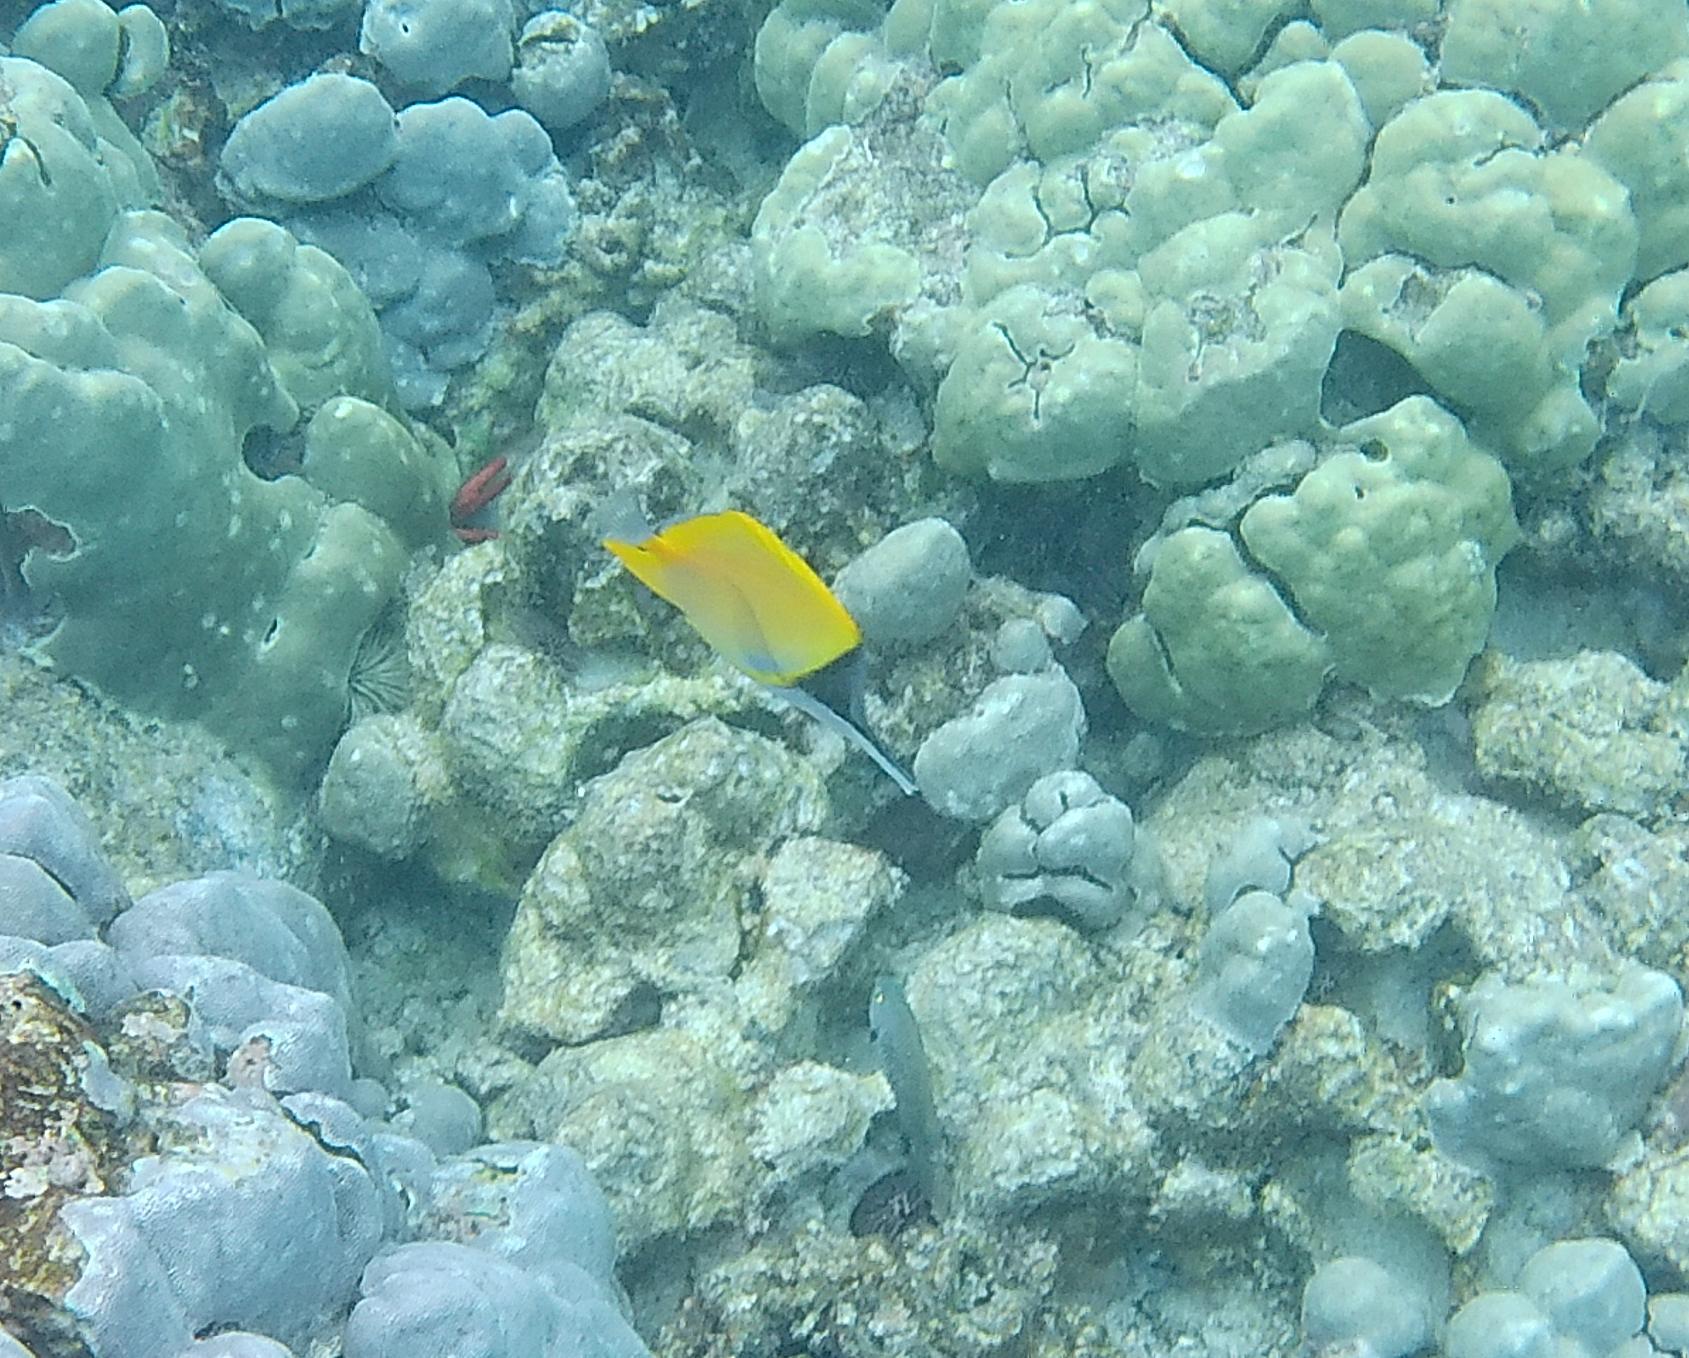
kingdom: Animalia
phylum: Chordata
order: Perciformes
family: Chaetodontidae
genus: Forcipiger
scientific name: Forcipiger flavissimus
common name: Forcepsfish
